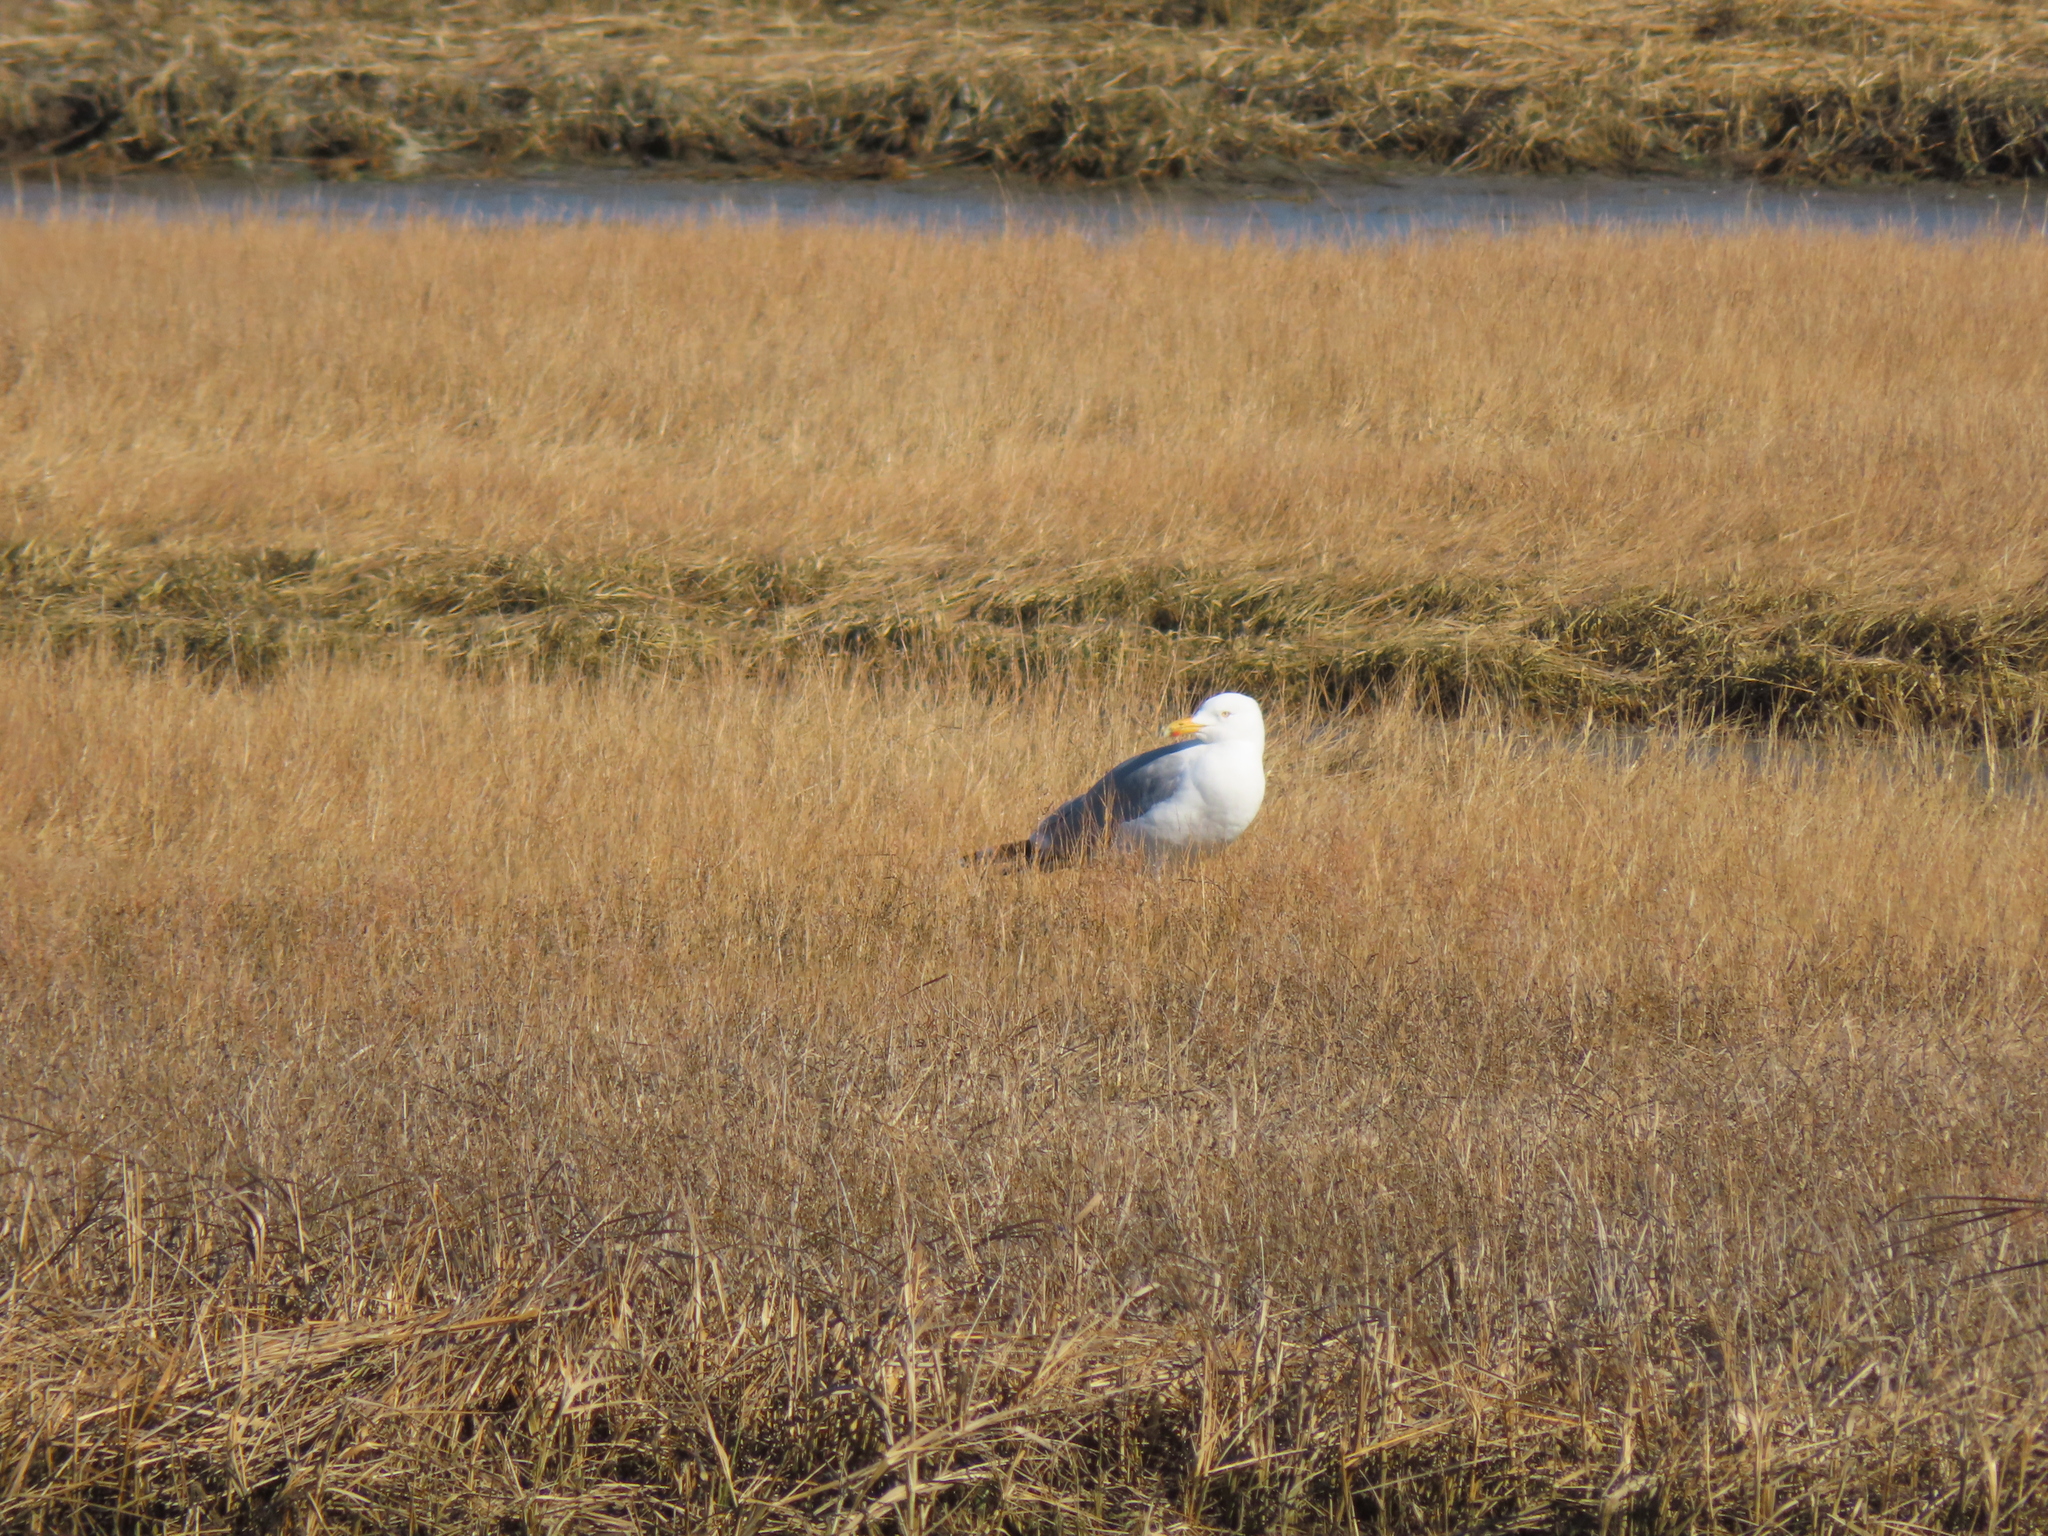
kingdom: Animalia
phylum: Chordata
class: Aves
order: Charadriiformes
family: Laridae
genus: Larus
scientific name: Larus argentatus
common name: Herring gull
